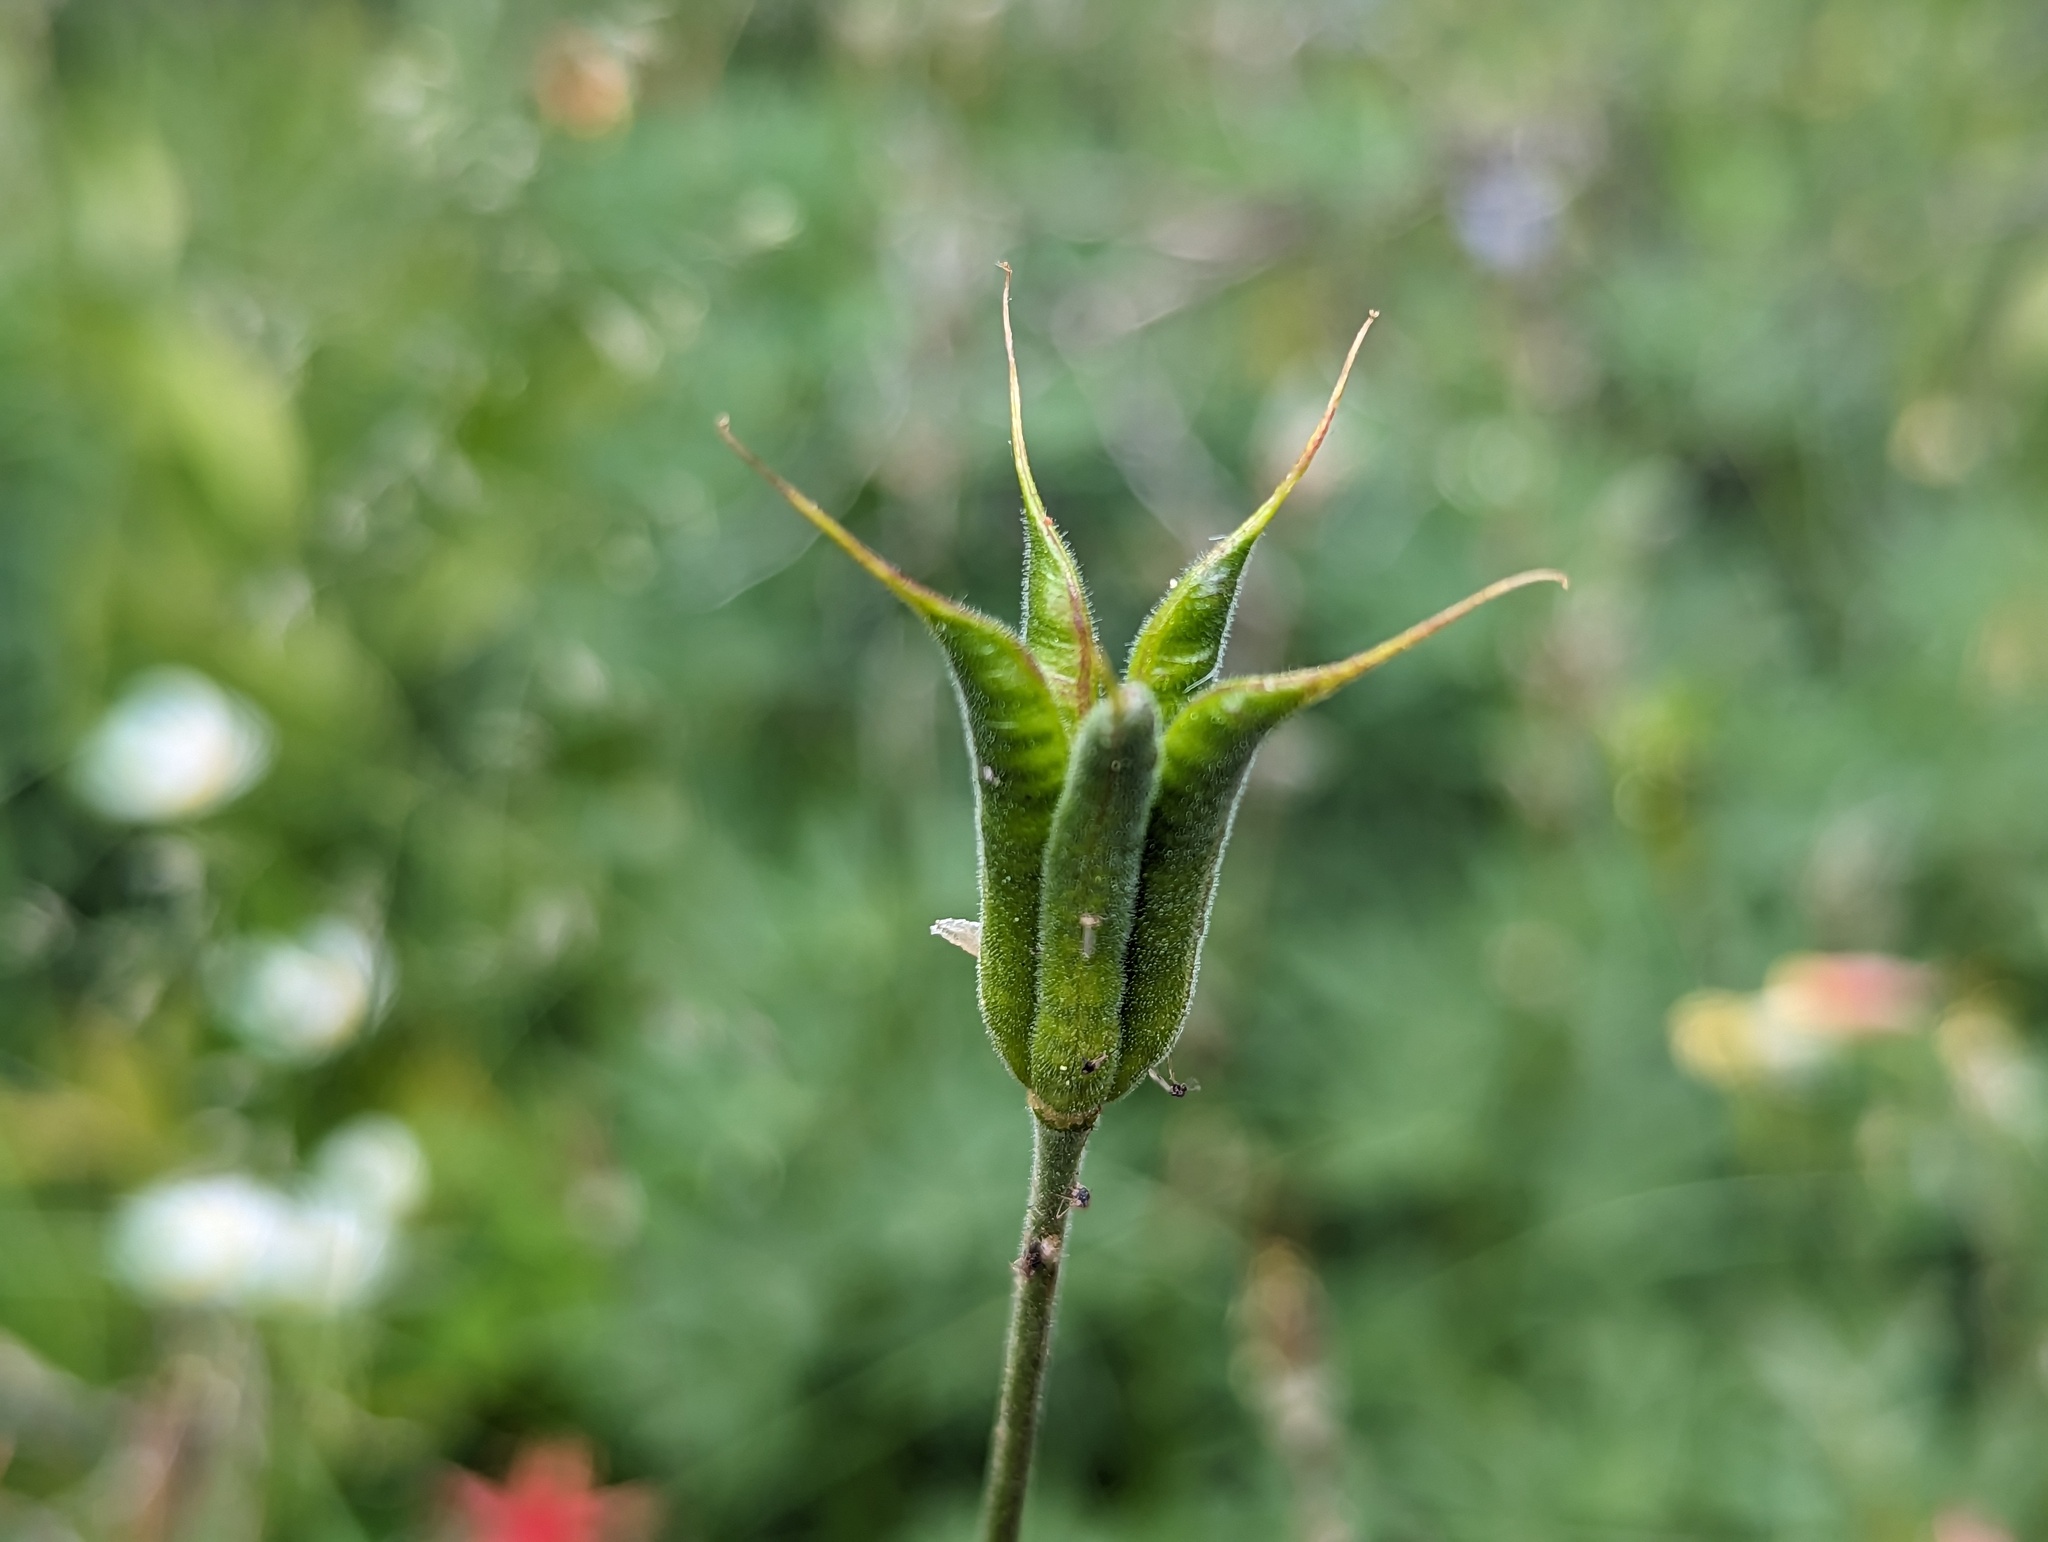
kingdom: Plantae
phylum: Tracheophyta
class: Magnoliopsida
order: Ranunculales
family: Ranunculaceae
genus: Aquilegia
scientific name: Aquilegia formosa
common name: Sitka columbine
